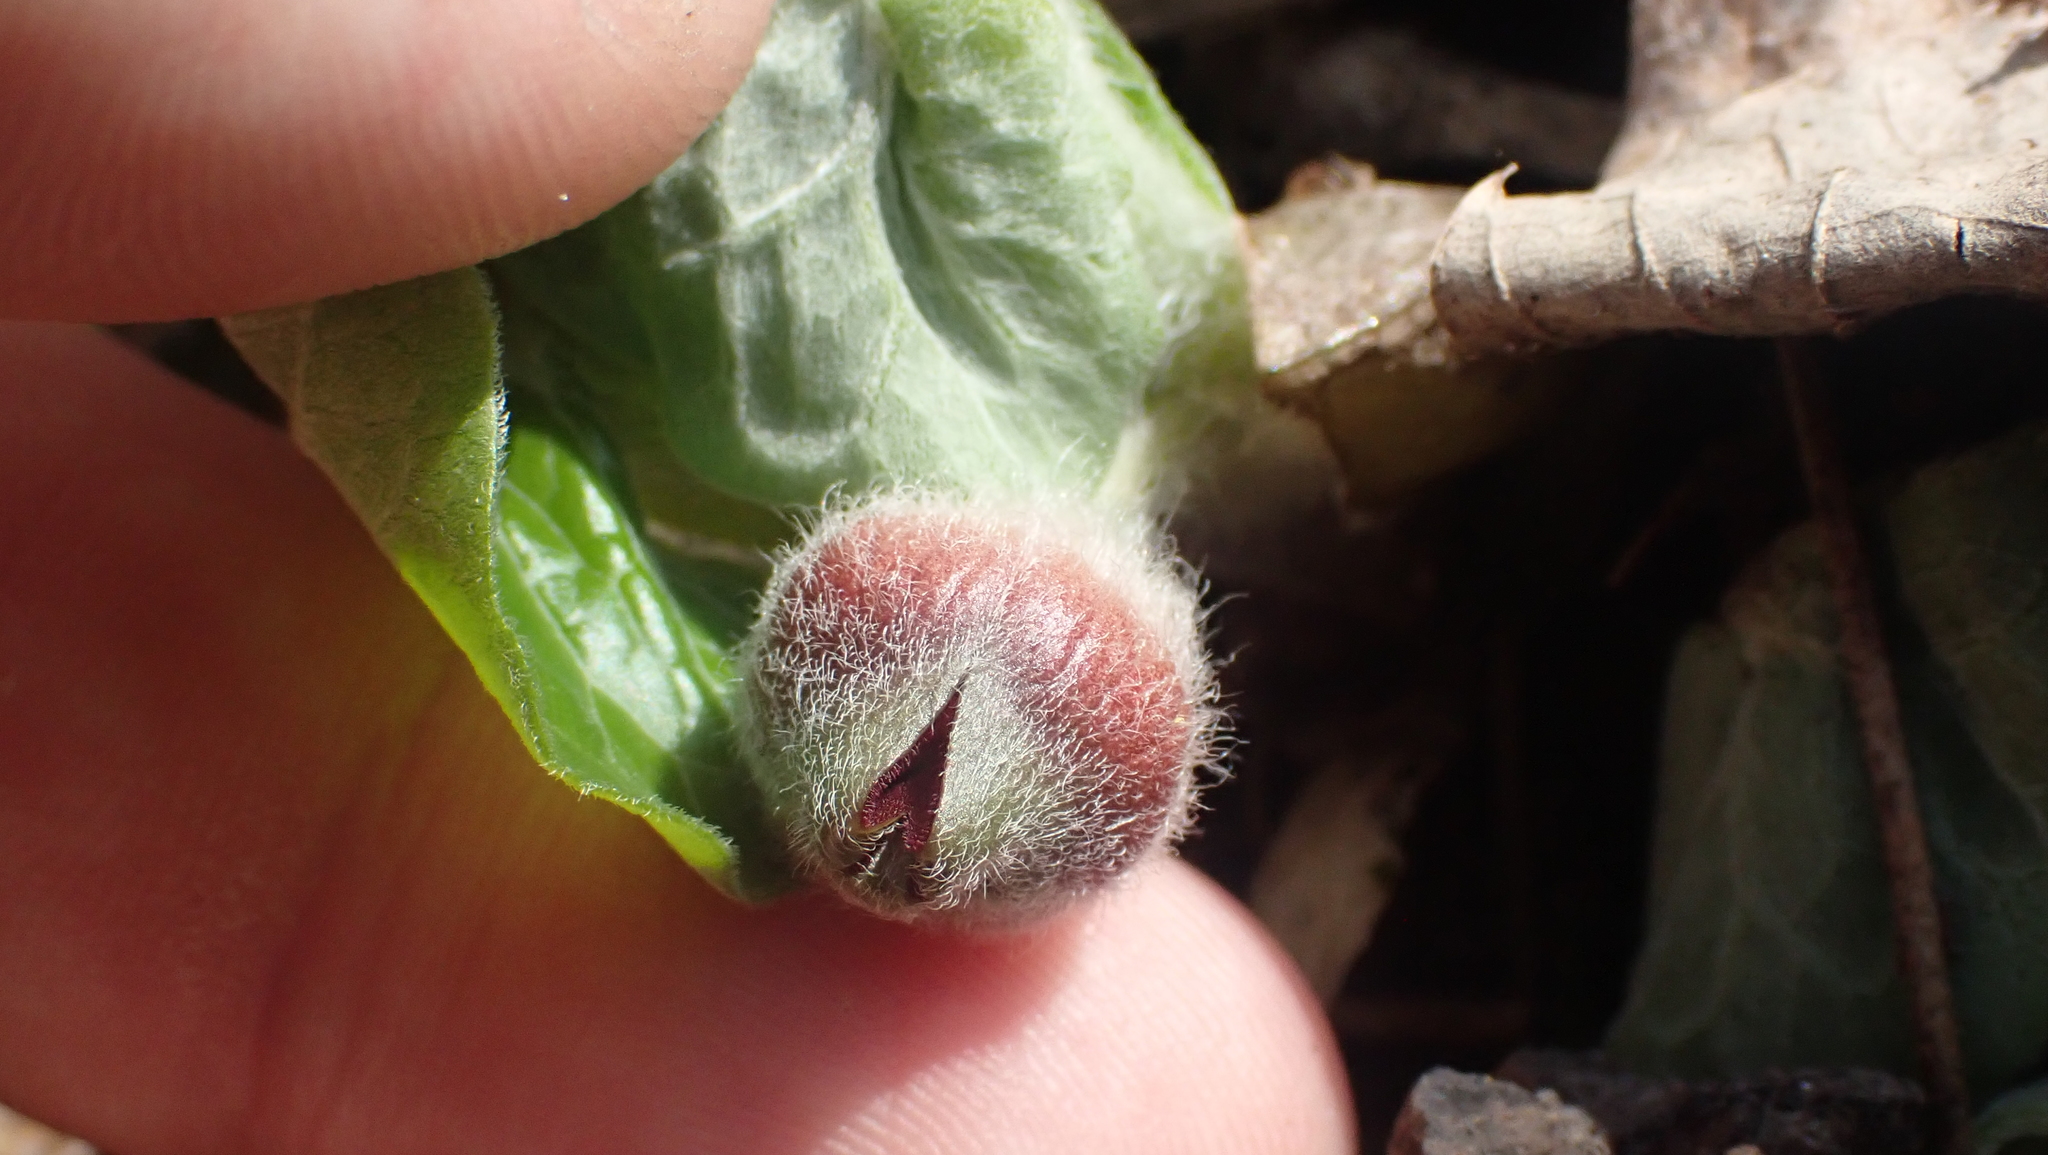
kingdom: Plantae
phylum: Tracheophyta
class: Magnoliopsida
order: Piperales
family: Aristolochiaceae
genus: Asarum
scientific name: Asarum canadense
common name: Wild ginger
